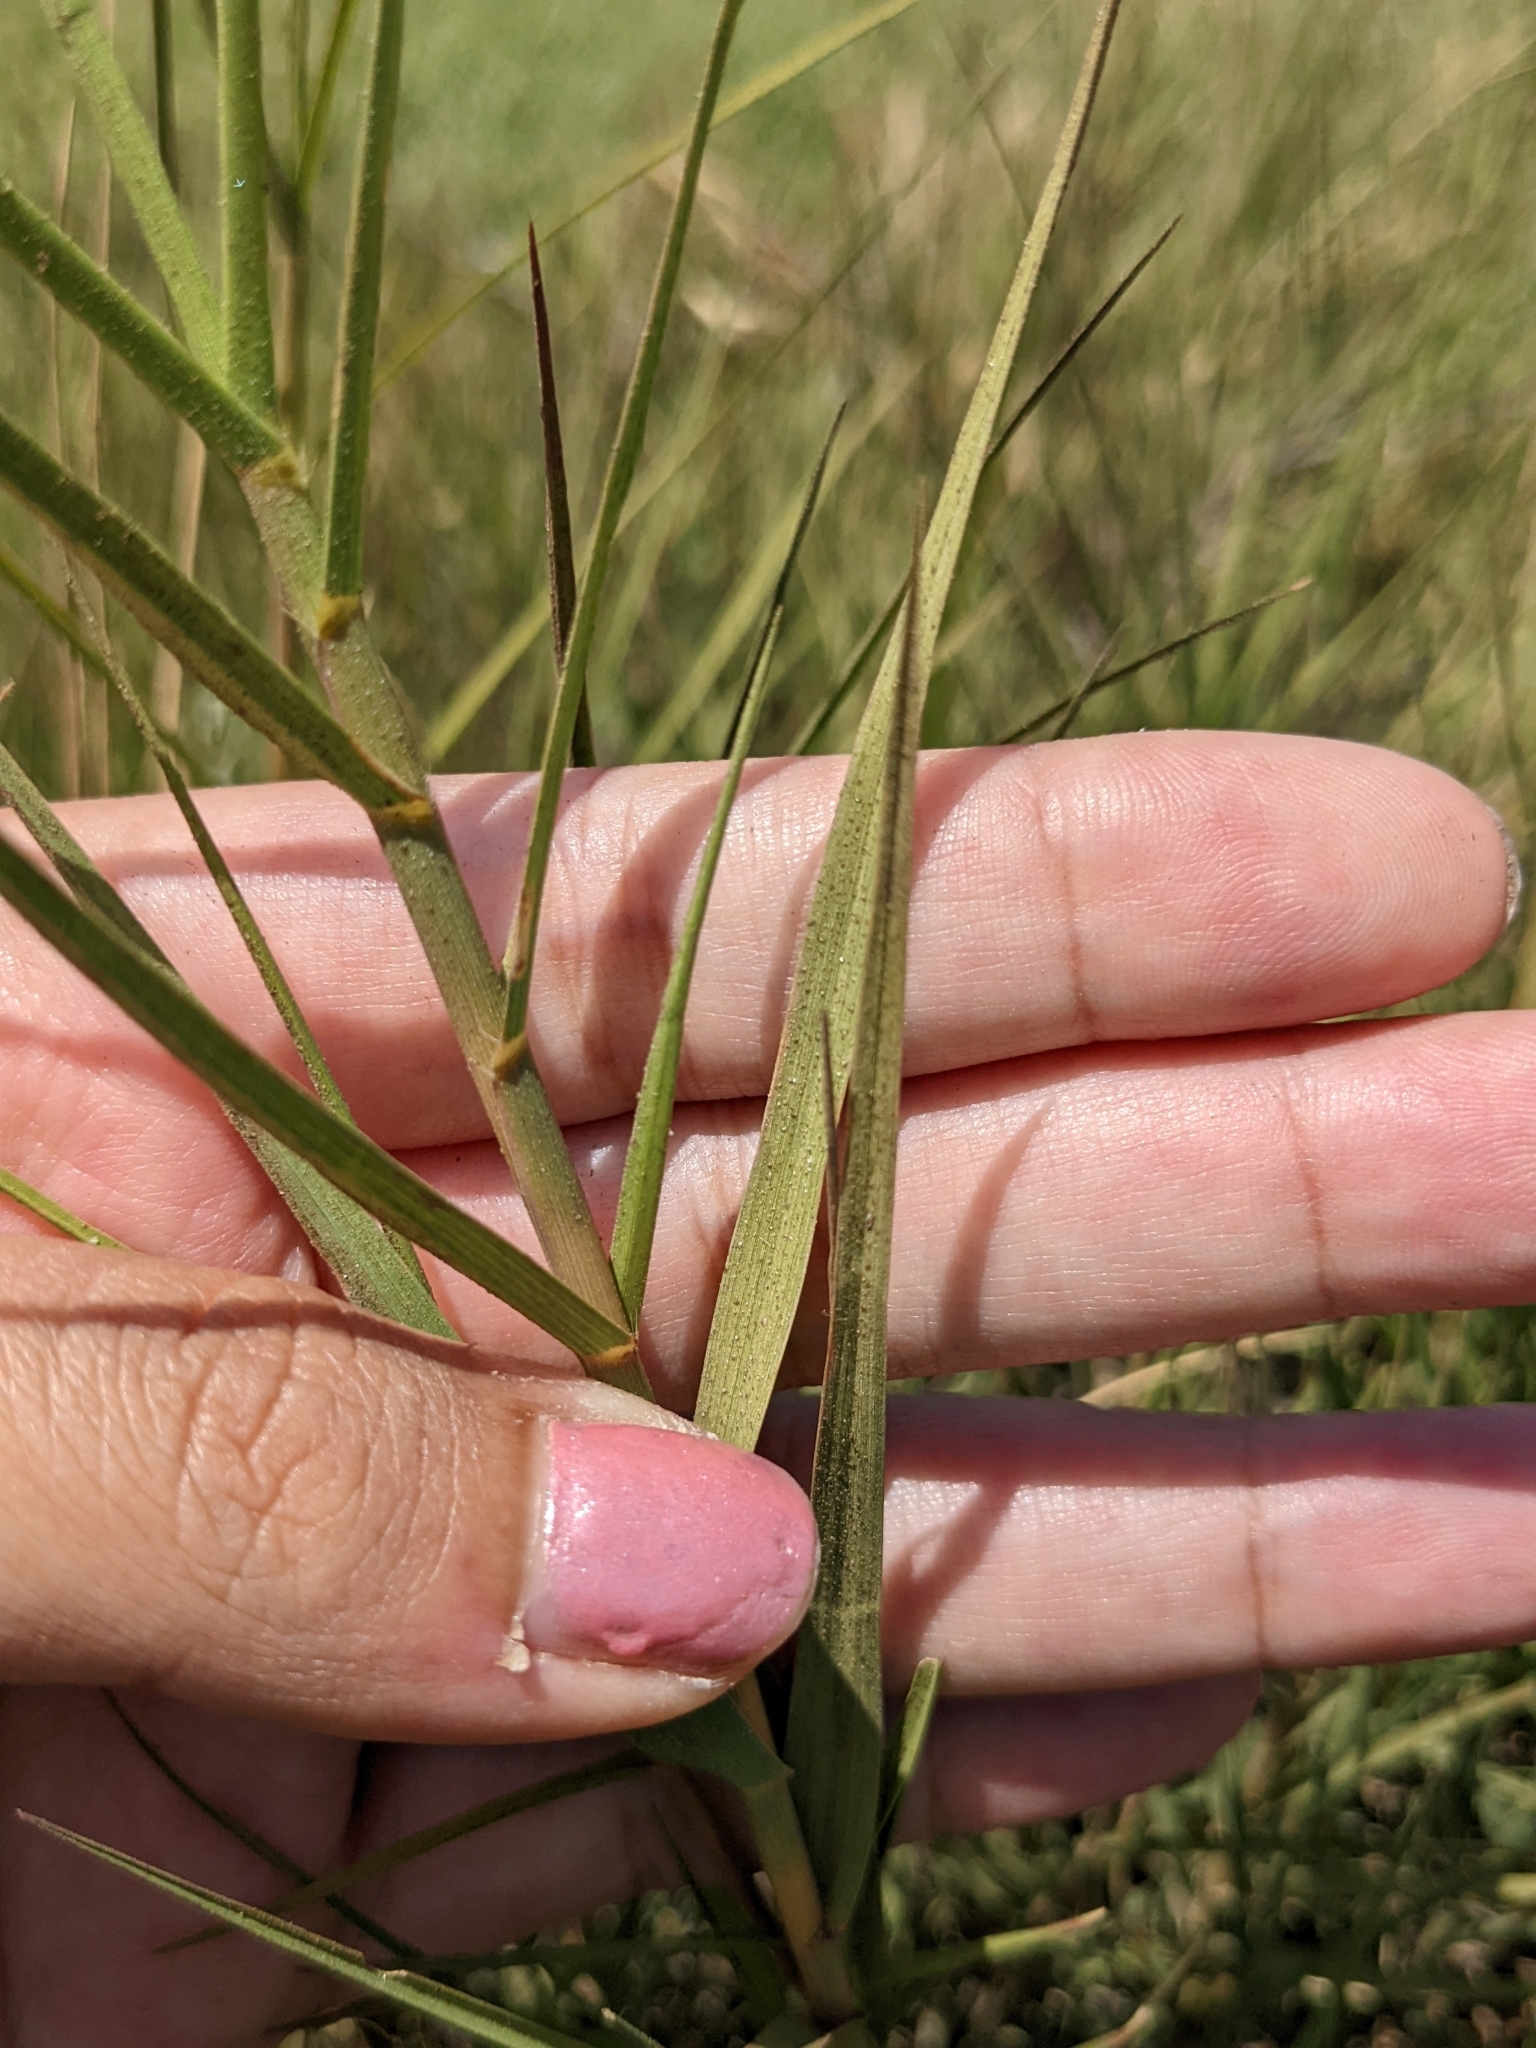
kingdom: Plantae
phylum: Tracheophyta
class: Liliopsida
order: Poales
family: Poaceae
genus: Distichlis
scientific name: Distichlis spicata
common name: Saltgrass
